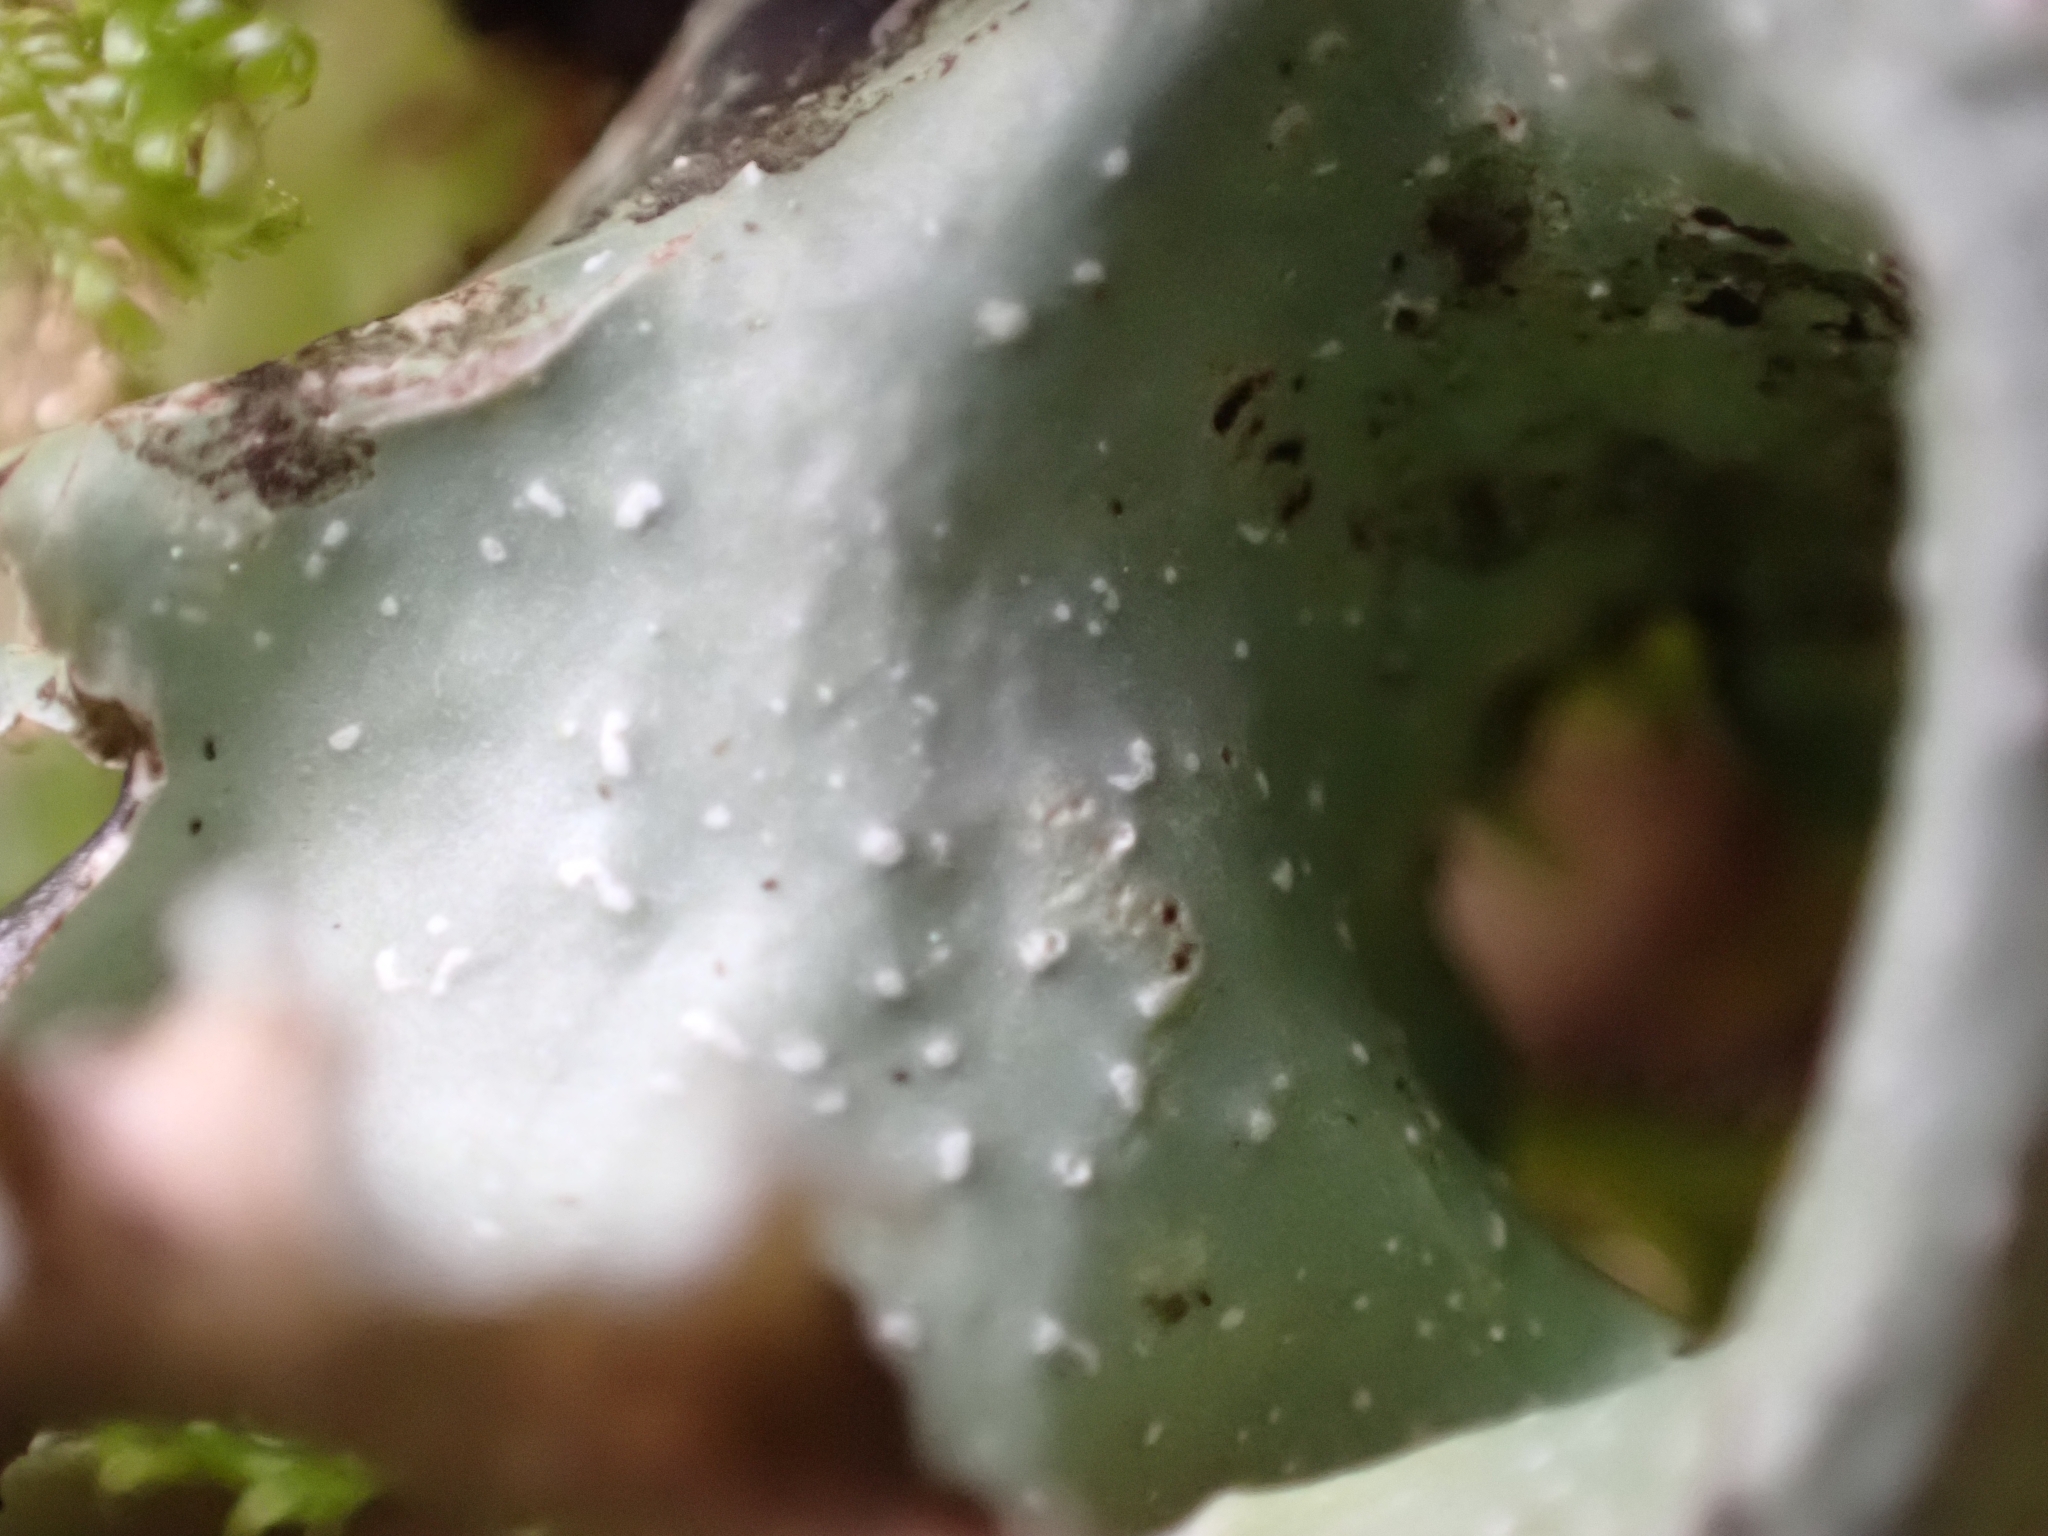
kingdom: Fungi
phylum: Ascomycota
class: Lecanoromycetes
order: Lecanorales
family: Parmeliaceae
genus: Cetrelia
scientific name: Cetrelia
